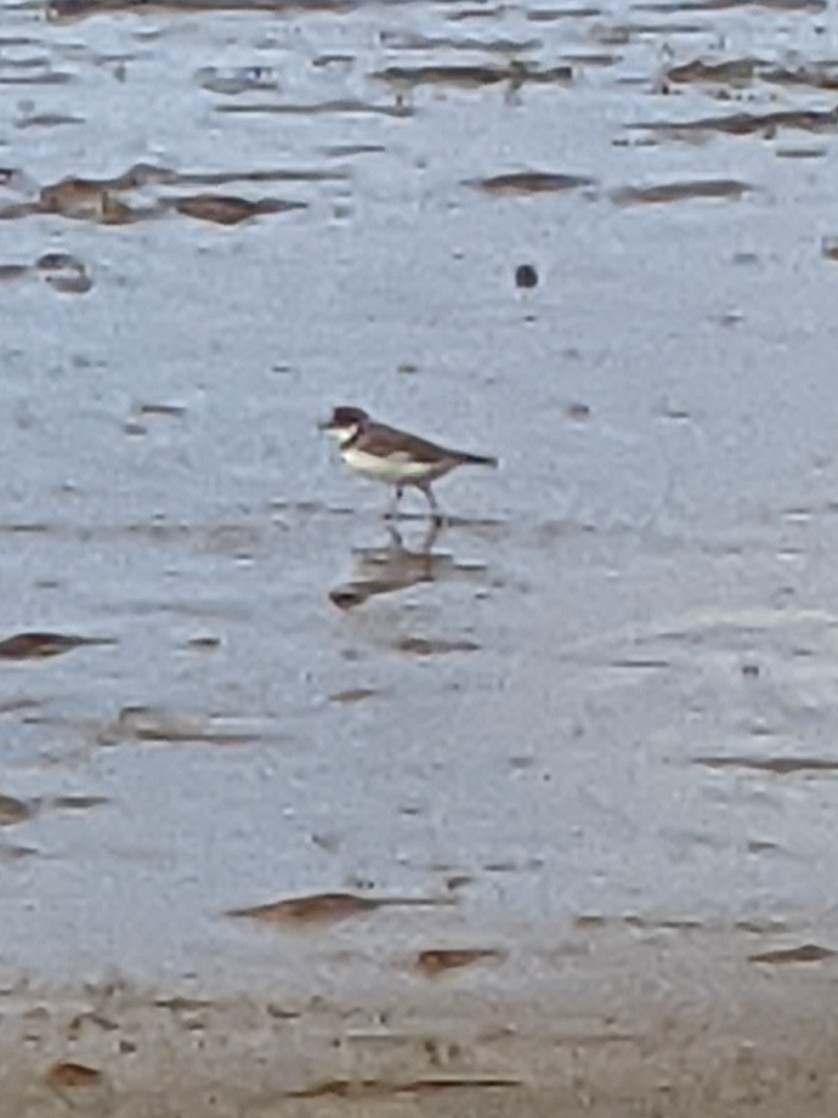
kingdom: Animalia
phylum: Chordata
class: Aves
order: Charadriiformes
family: Charadriidae
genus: Charadrius
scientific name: Charadrius semipalmatus
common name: Semipalmated plover
